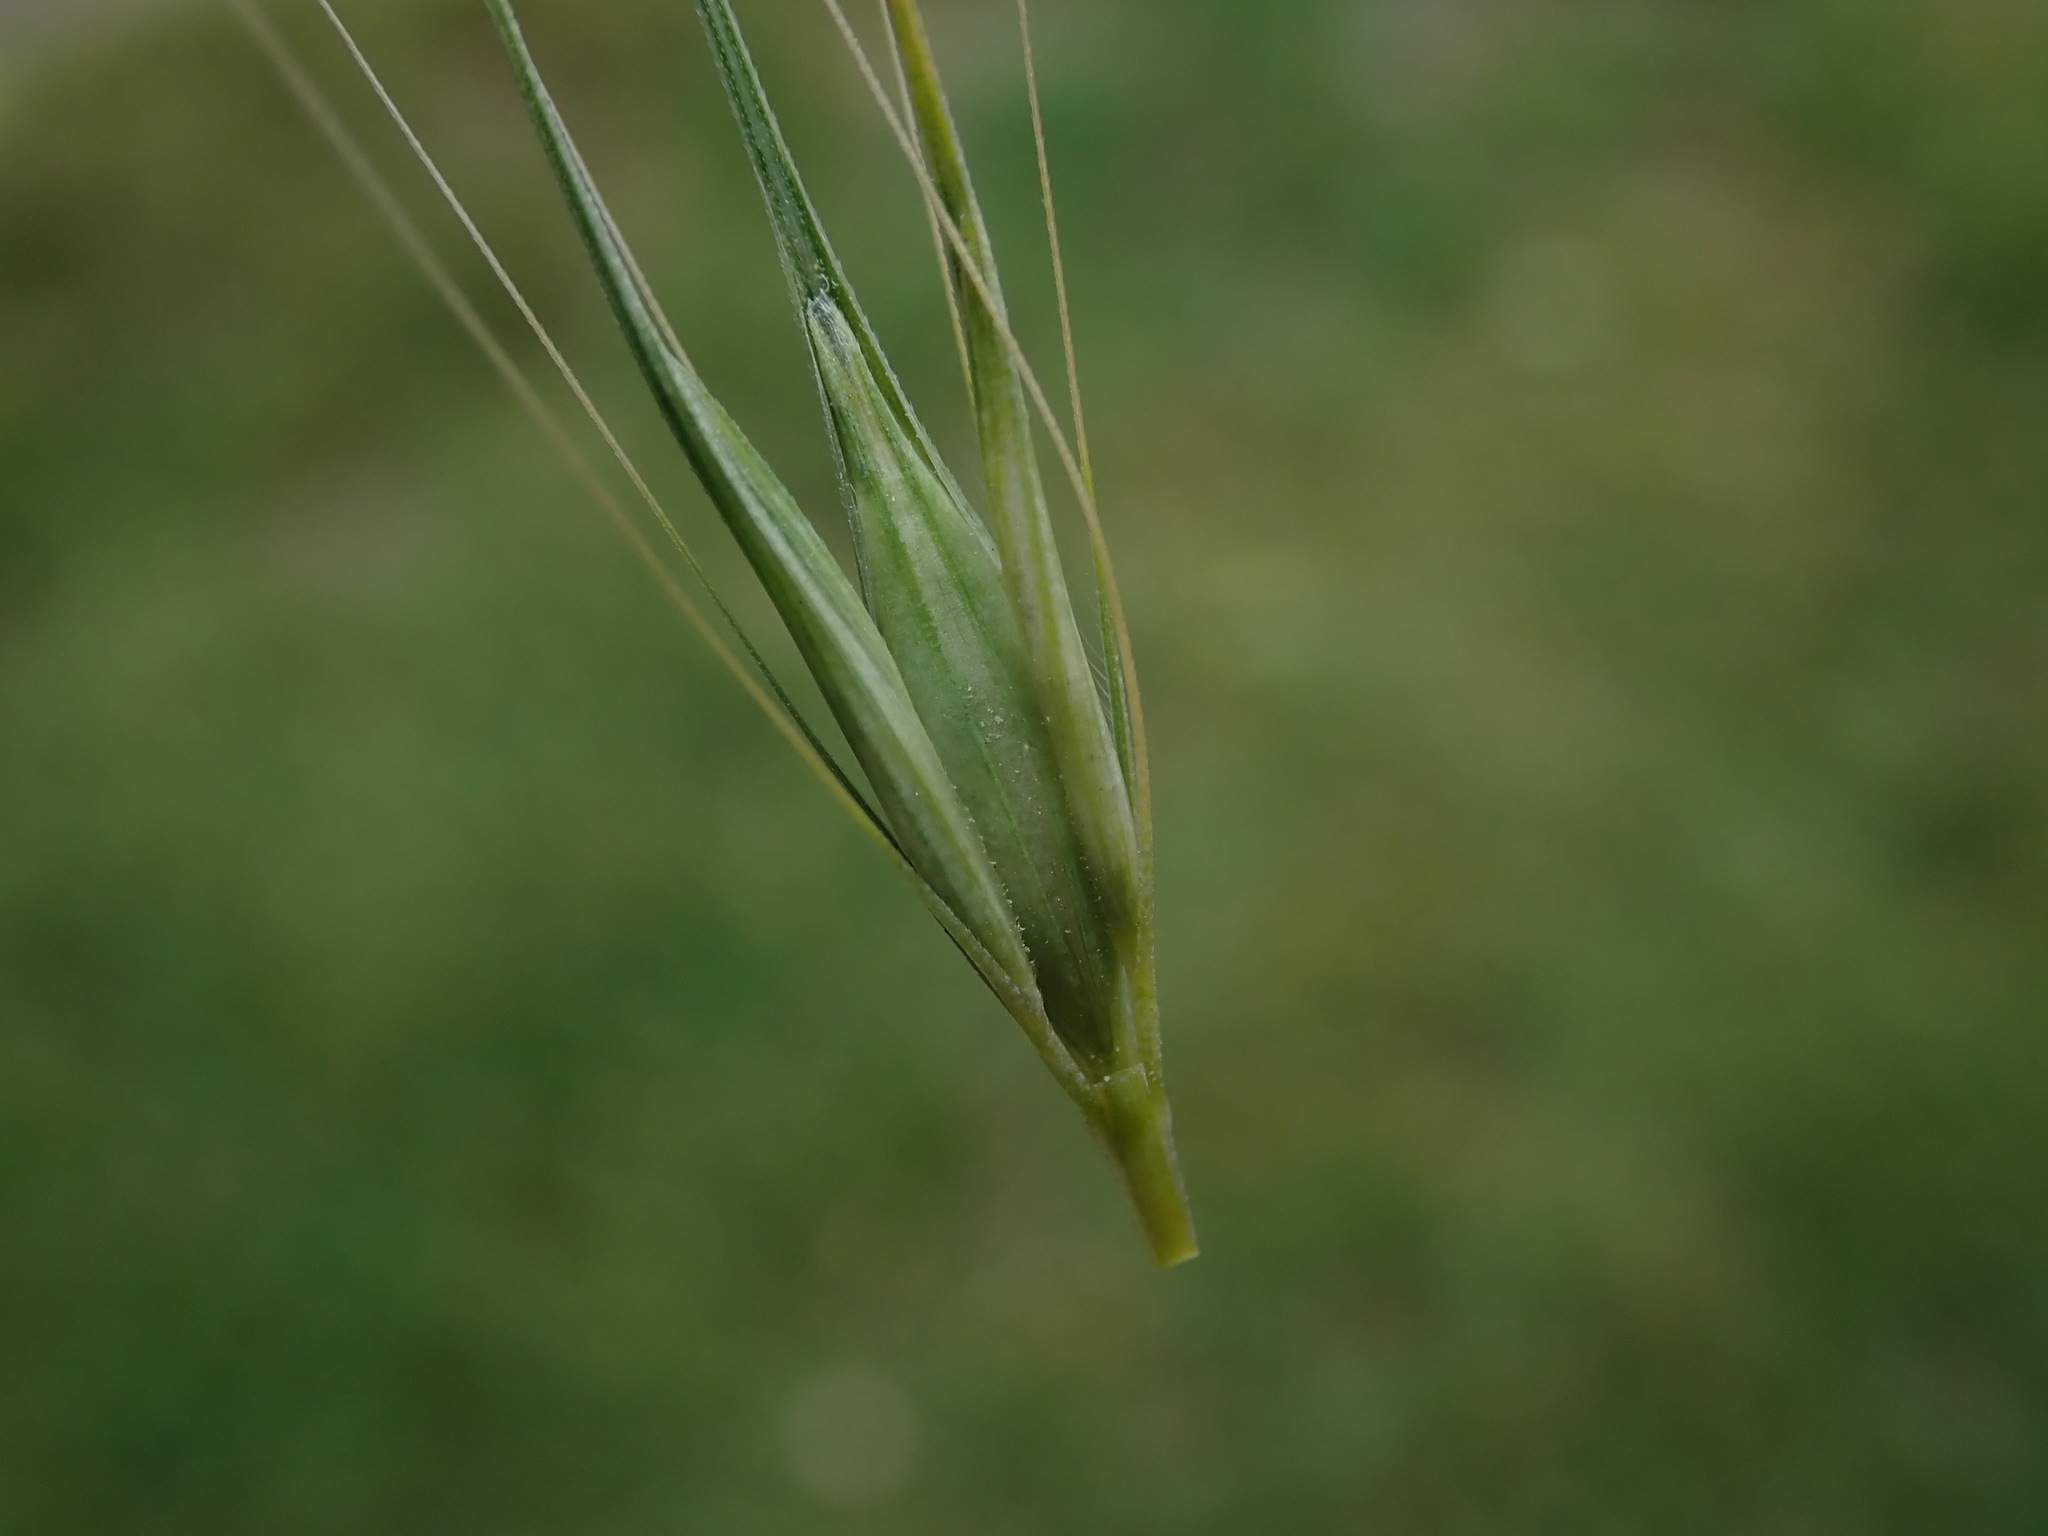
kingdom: Plantae
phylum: Tracheophyta
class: Liliopsida
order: Poales
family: Poaceae
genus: Hordeum
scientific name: Hordeum murinum
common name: Wall barley
